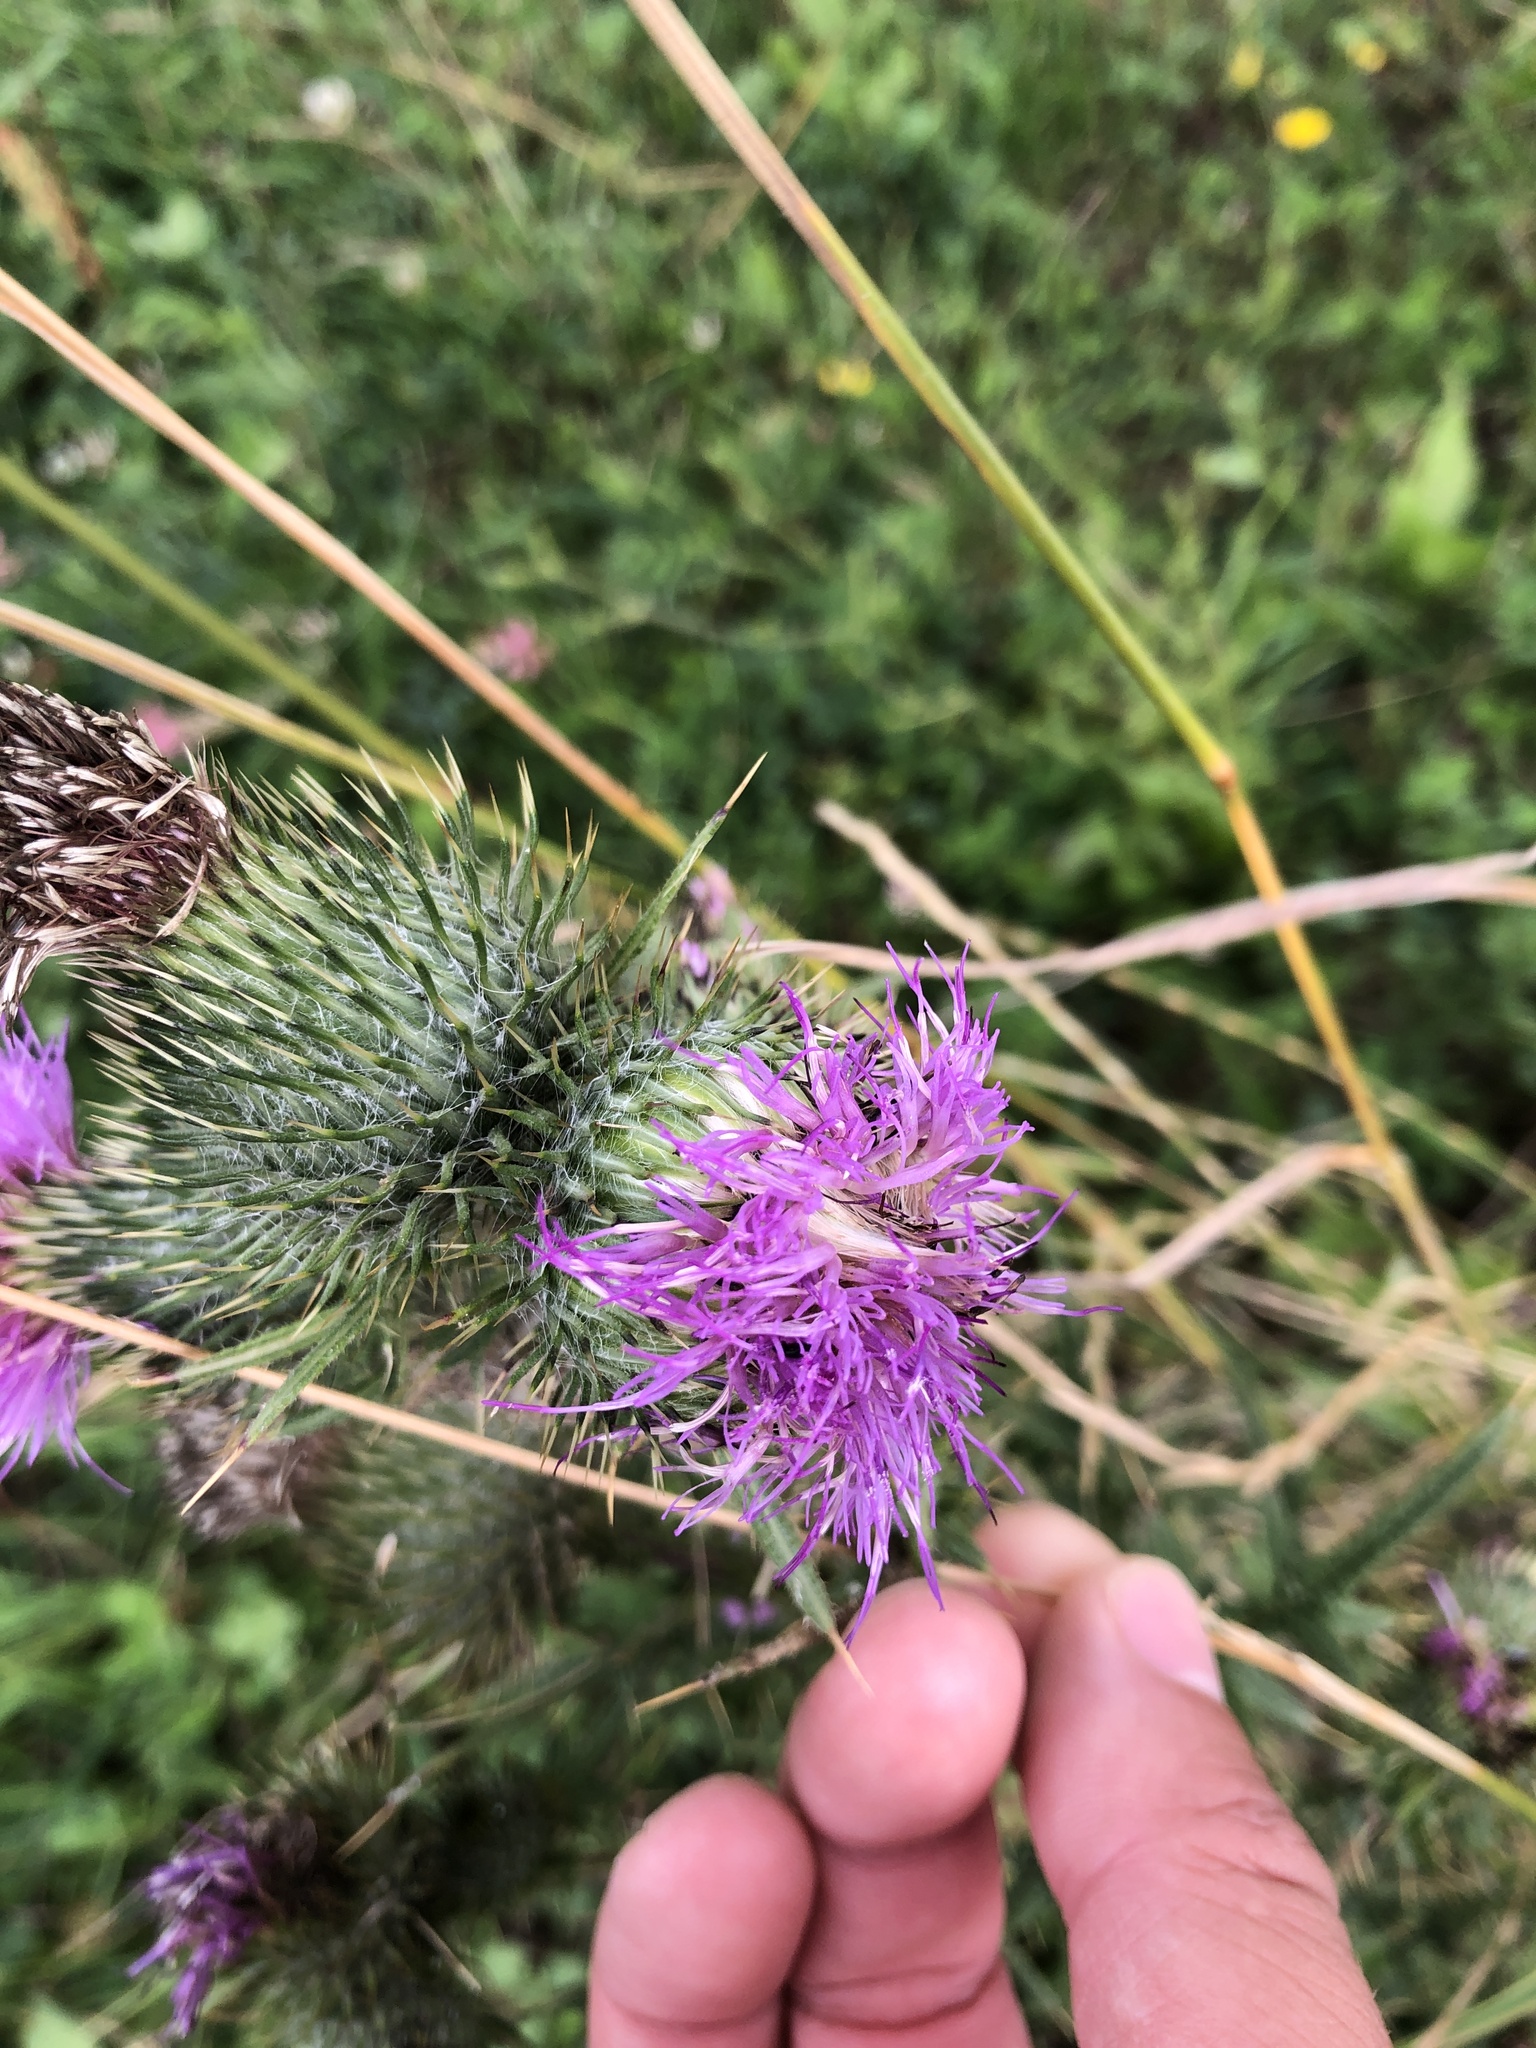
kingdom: Plantae
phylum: Tracheophyta
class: Magnoliopsida
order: Asterales
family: Asteraceae
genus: Cirsium
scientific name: Cirsium vulgare
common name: Bull thistle
